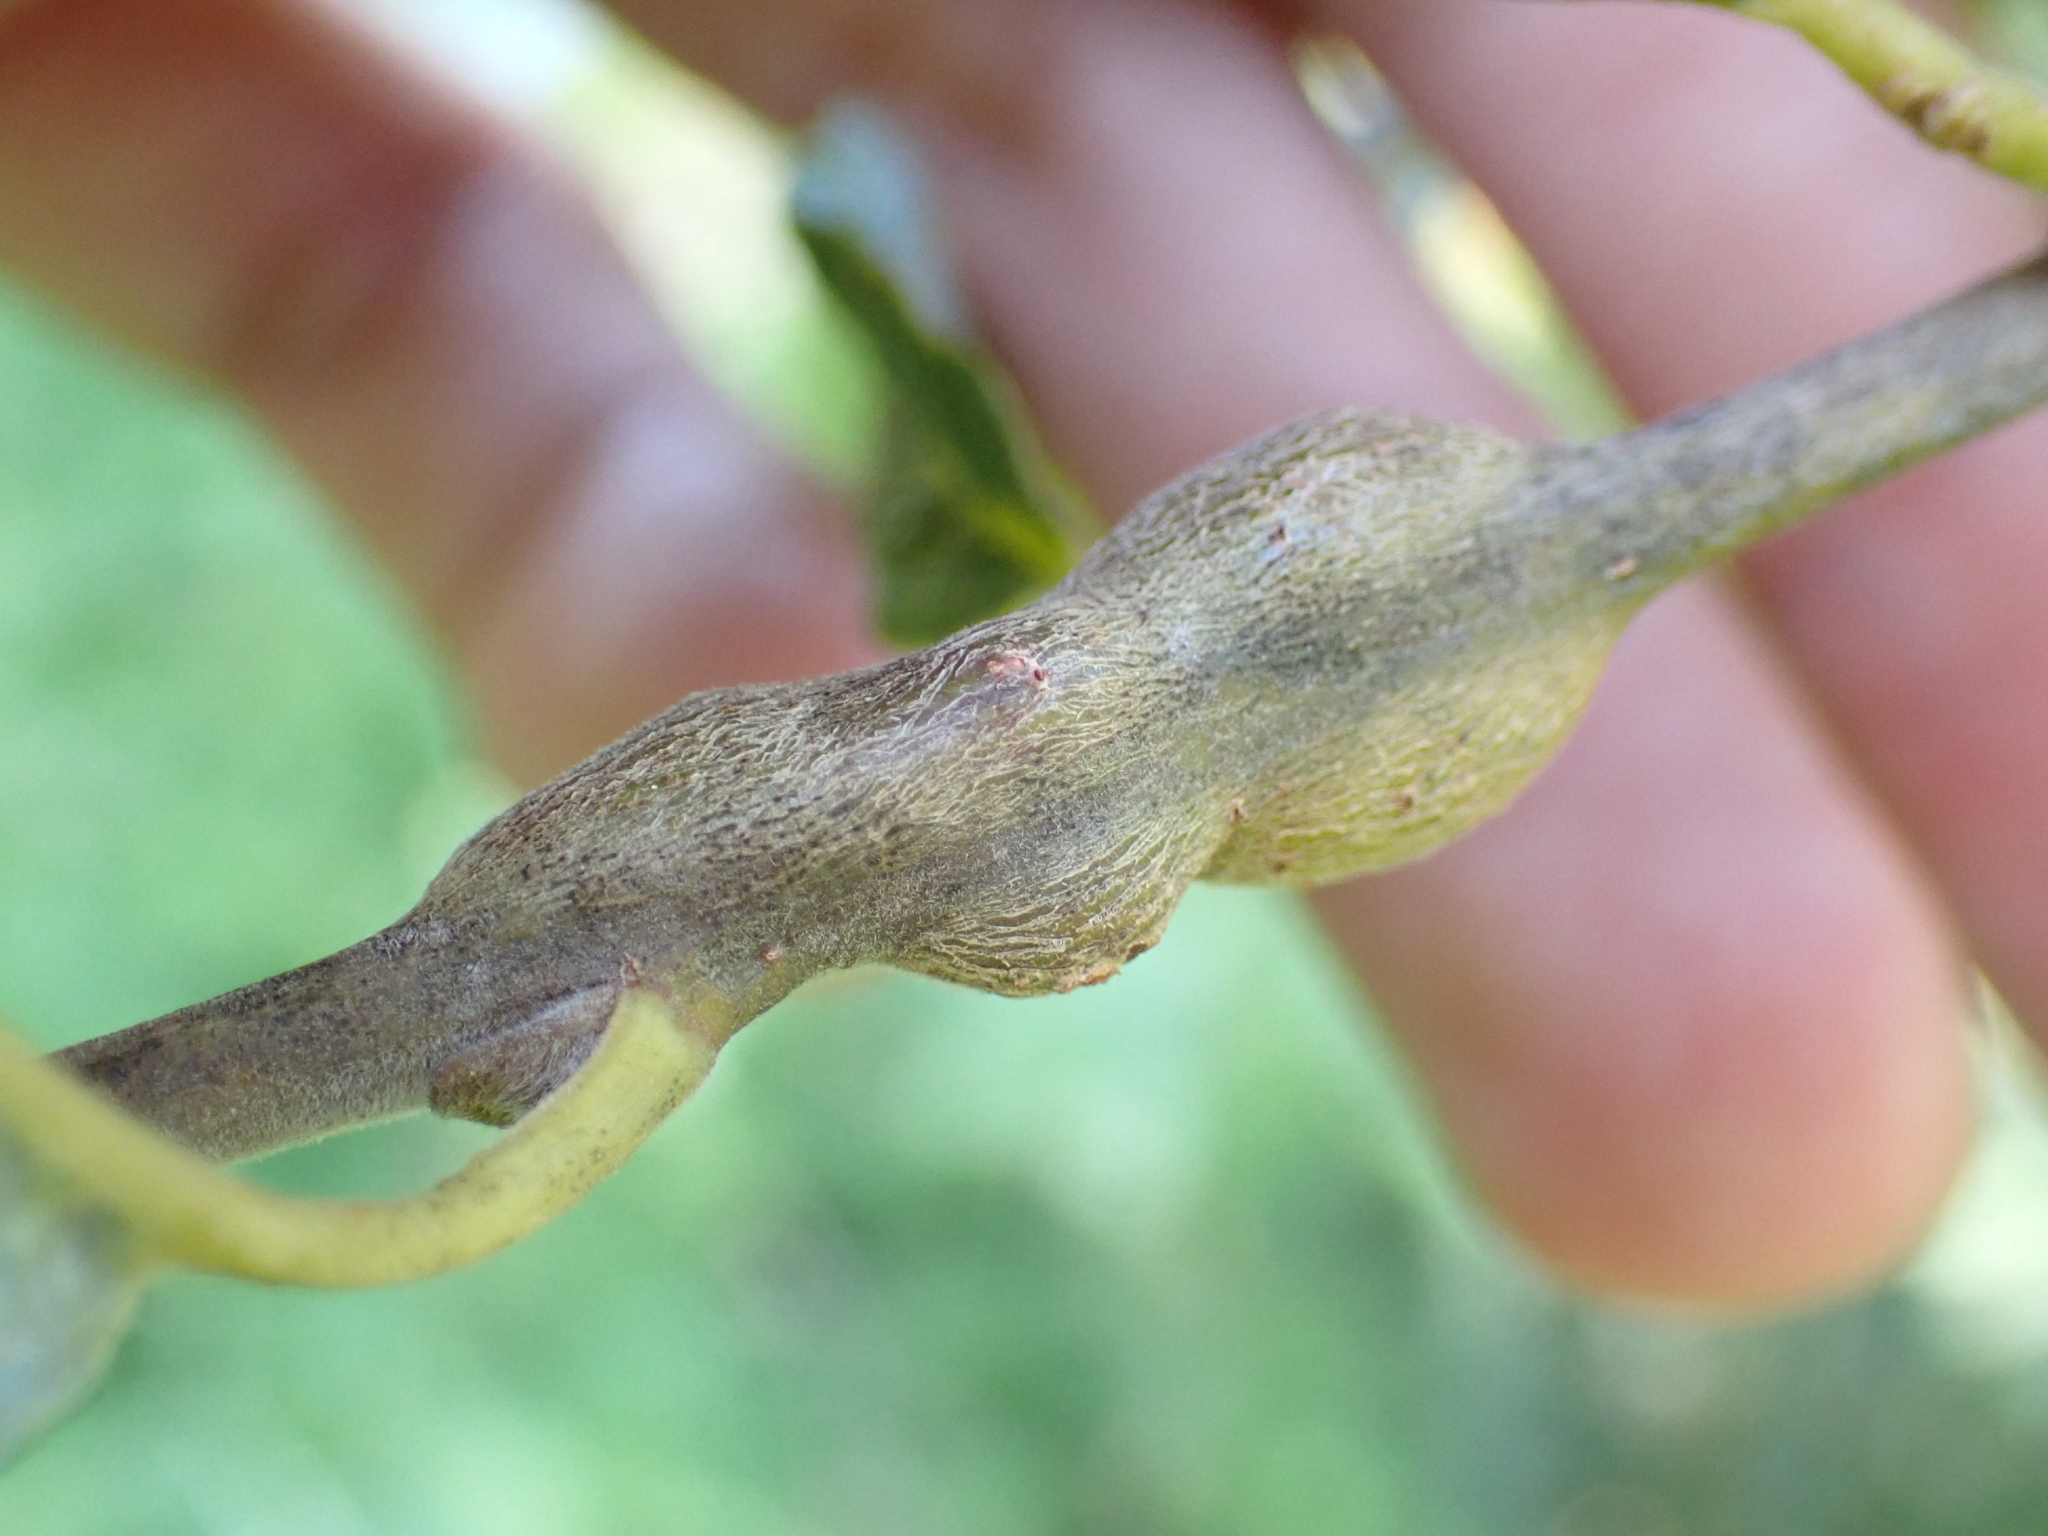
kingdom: Animalia
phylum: Arthropoda
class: Insecta
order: Diptera
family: Cecidomyiidae
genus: Rabdophaga
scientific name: Rabdophaga salicis
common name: Willow twig gall midge
